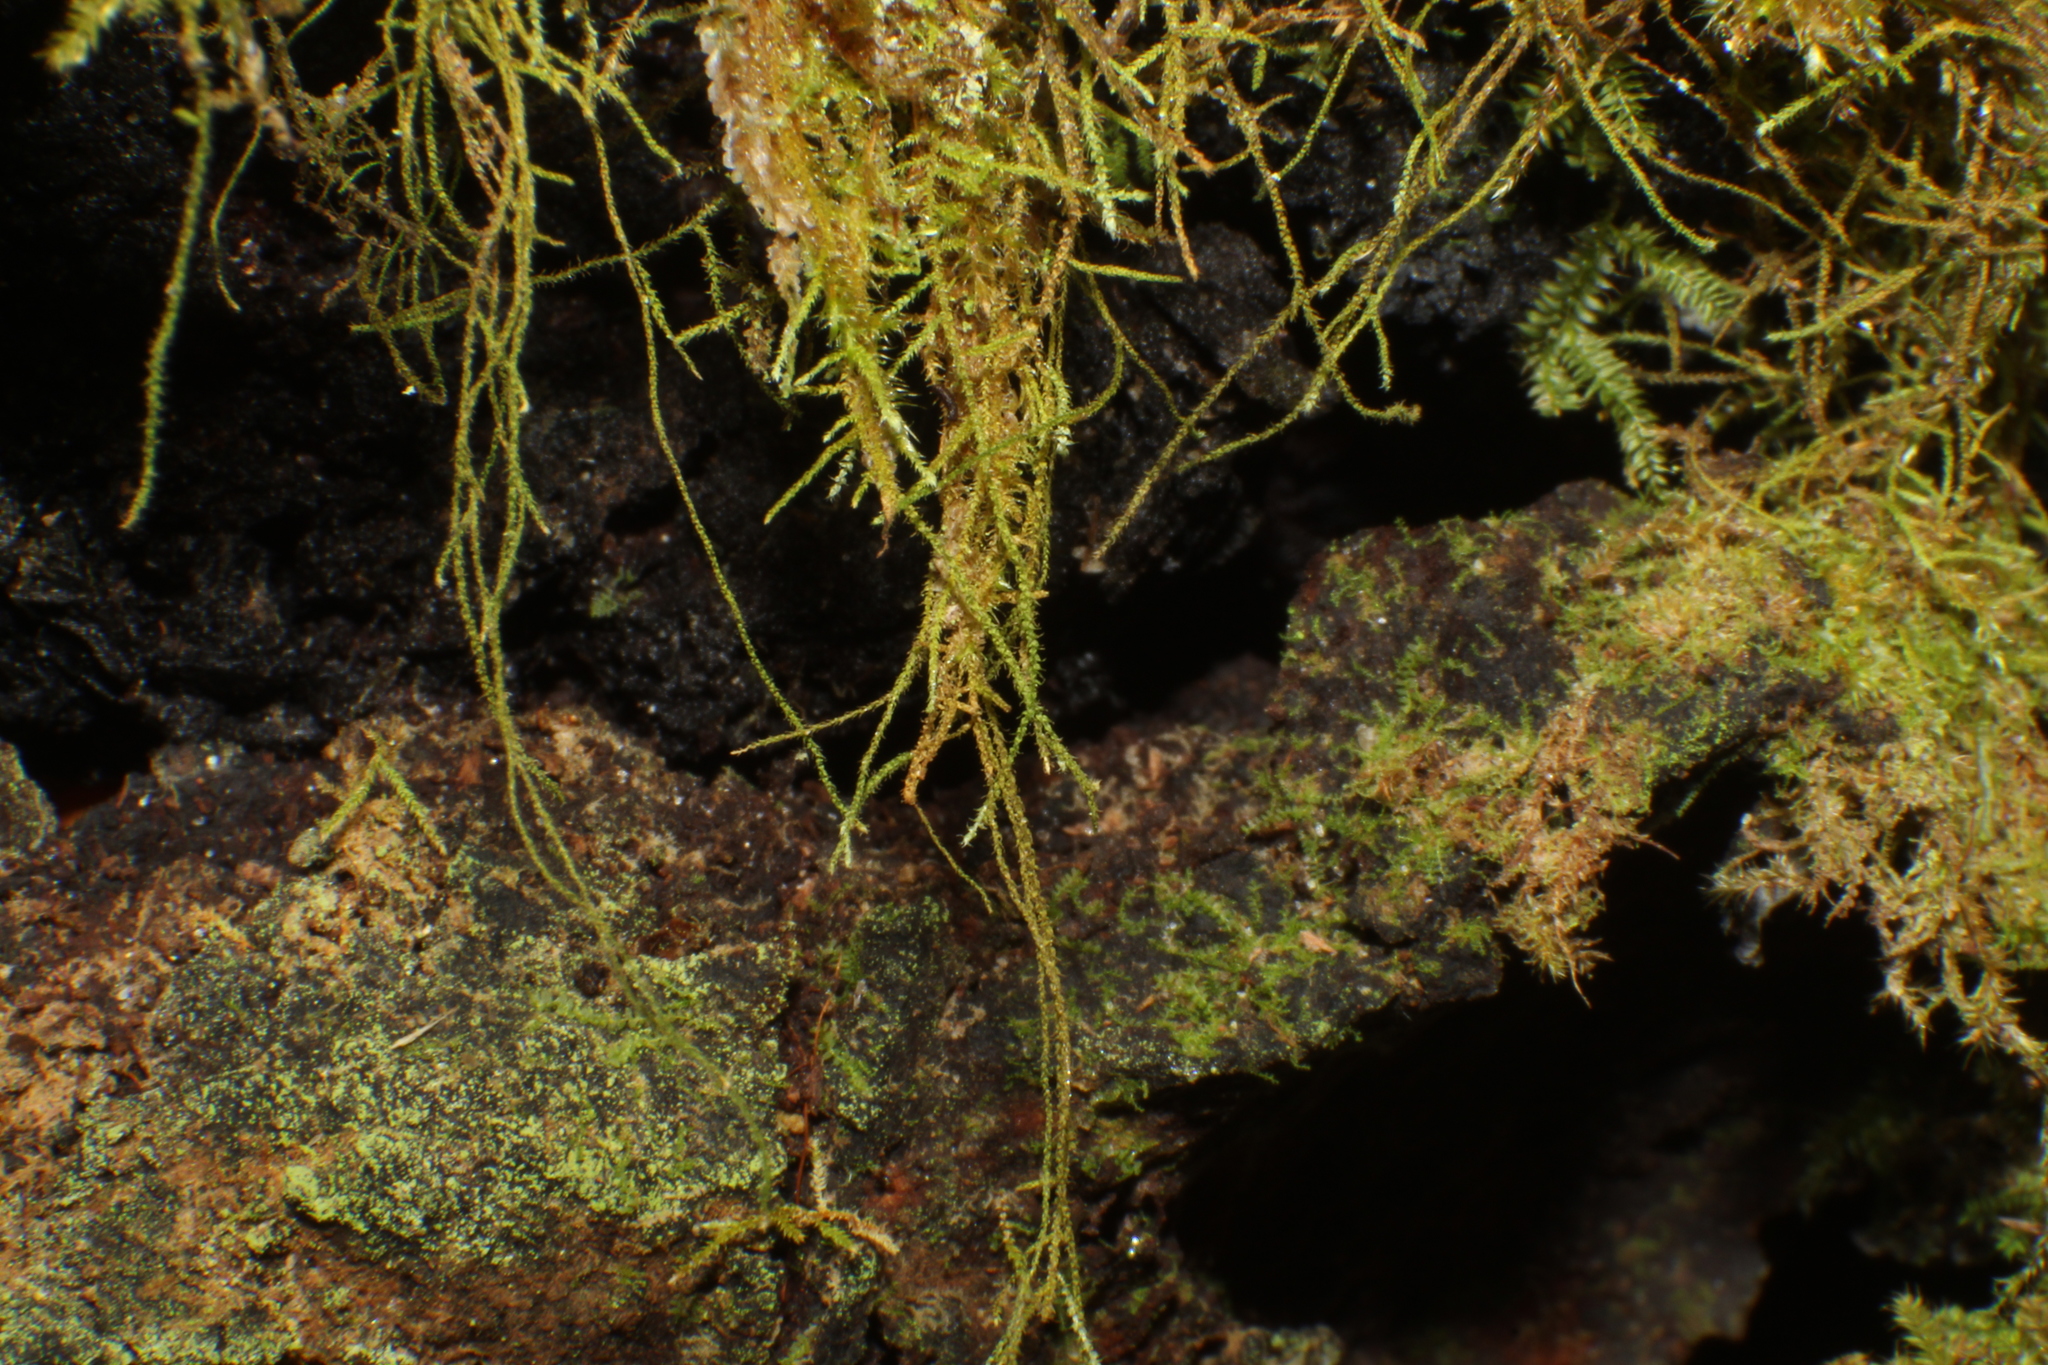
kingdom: Plantae
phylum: Bryophyta
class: Bryopsida
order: Hypnales
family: Thuidiaceae
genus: Thuidiopsis
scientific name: Thuidiopsis sparsa
